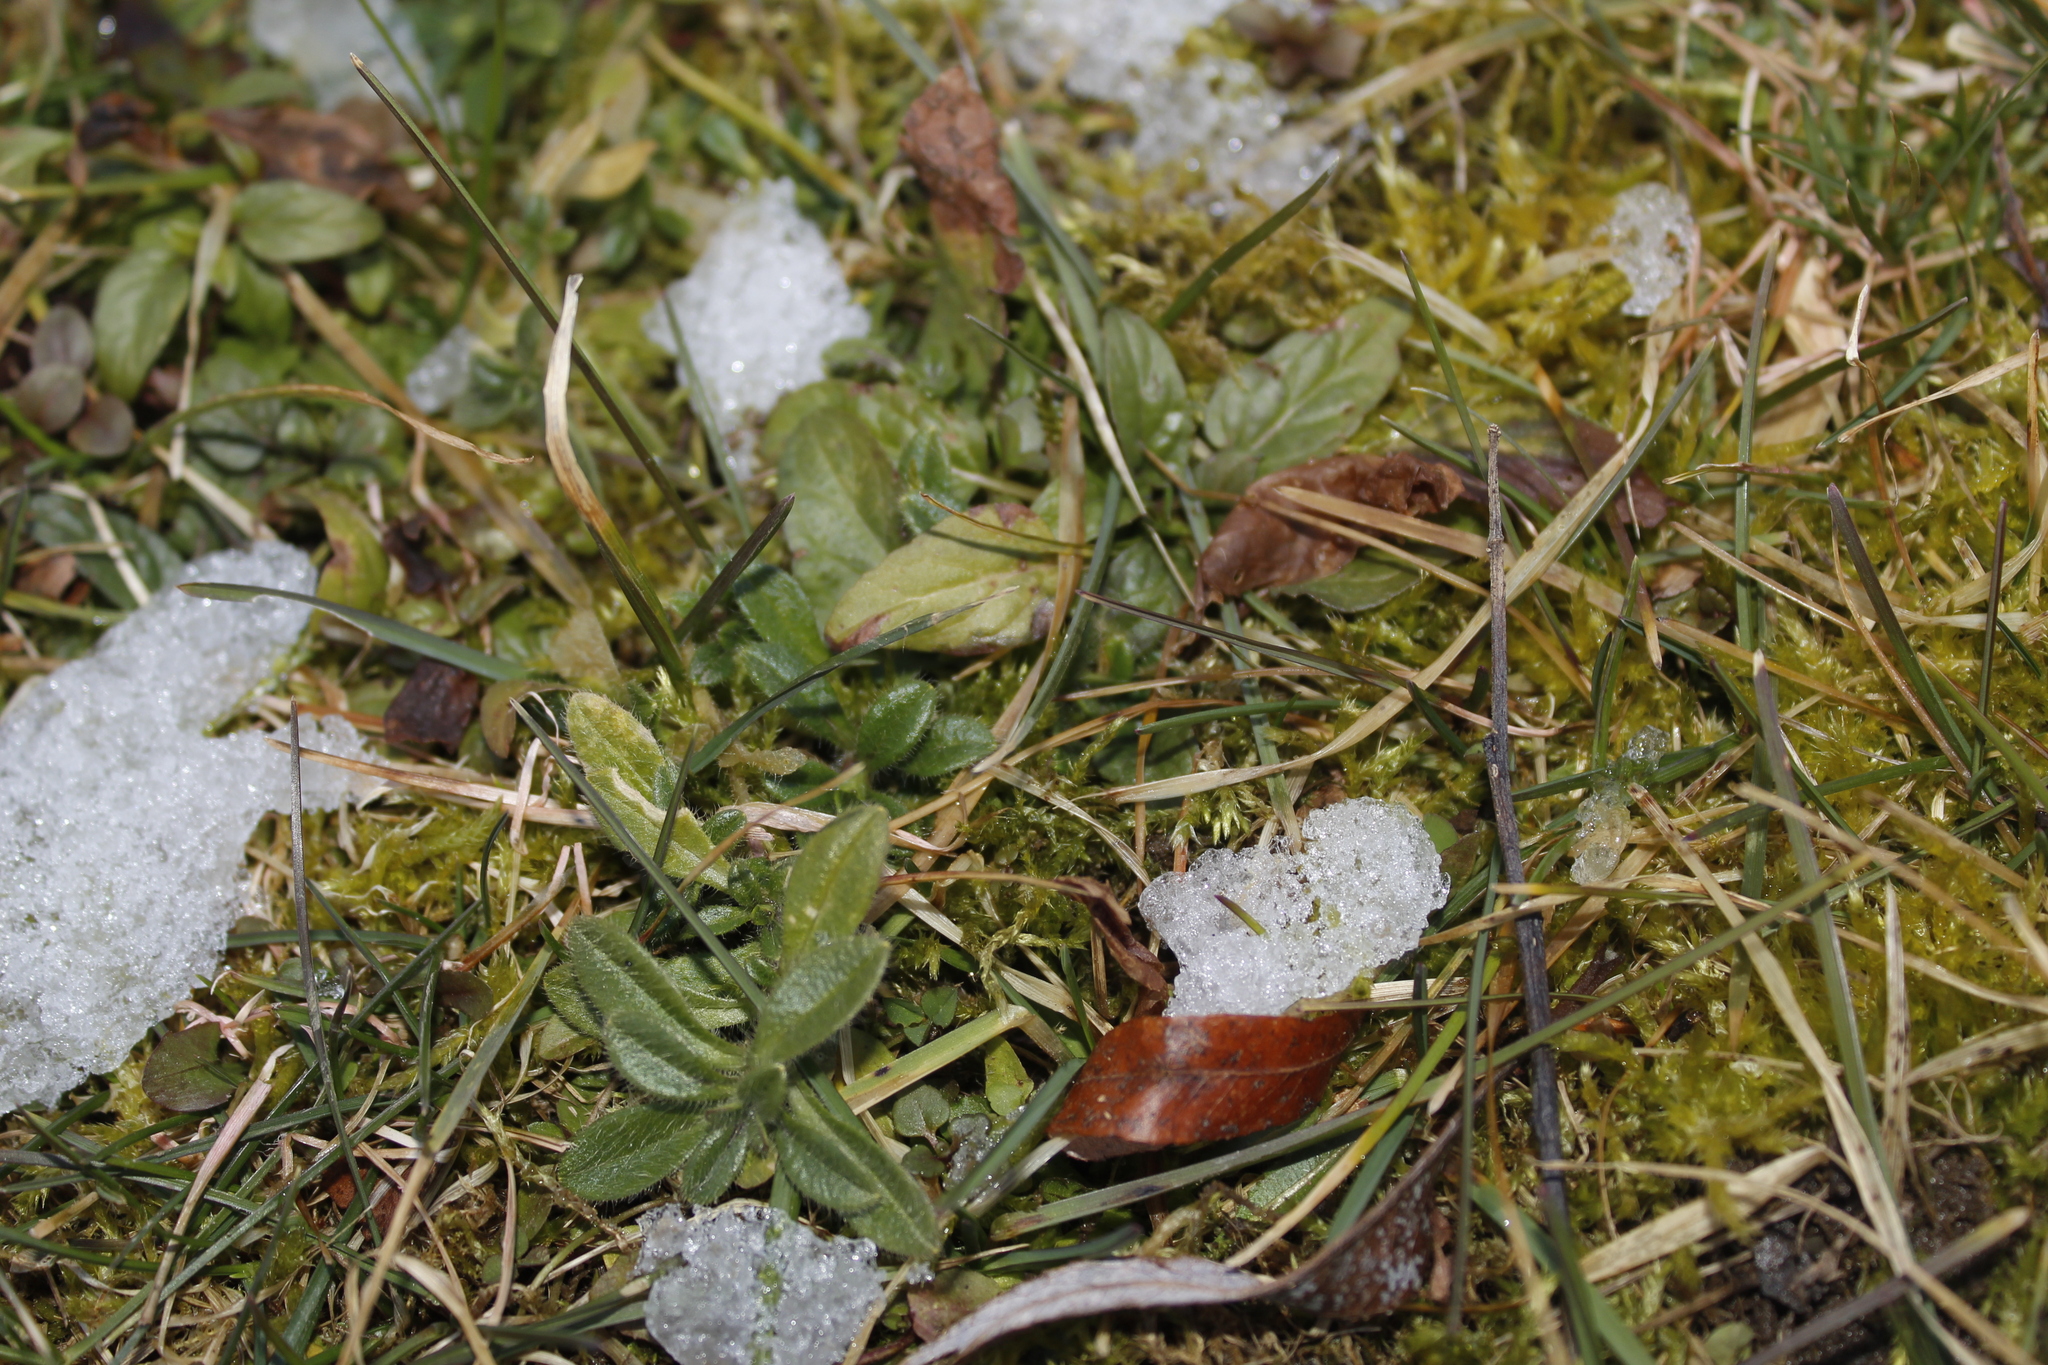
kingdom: Plantae
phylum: Tracheophyta
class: Magnoliopsida
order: Caryophyllales
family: Caryophyllaceae
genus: Cerastium
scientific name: Cerastium fontanum
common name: Common mouse-ear
